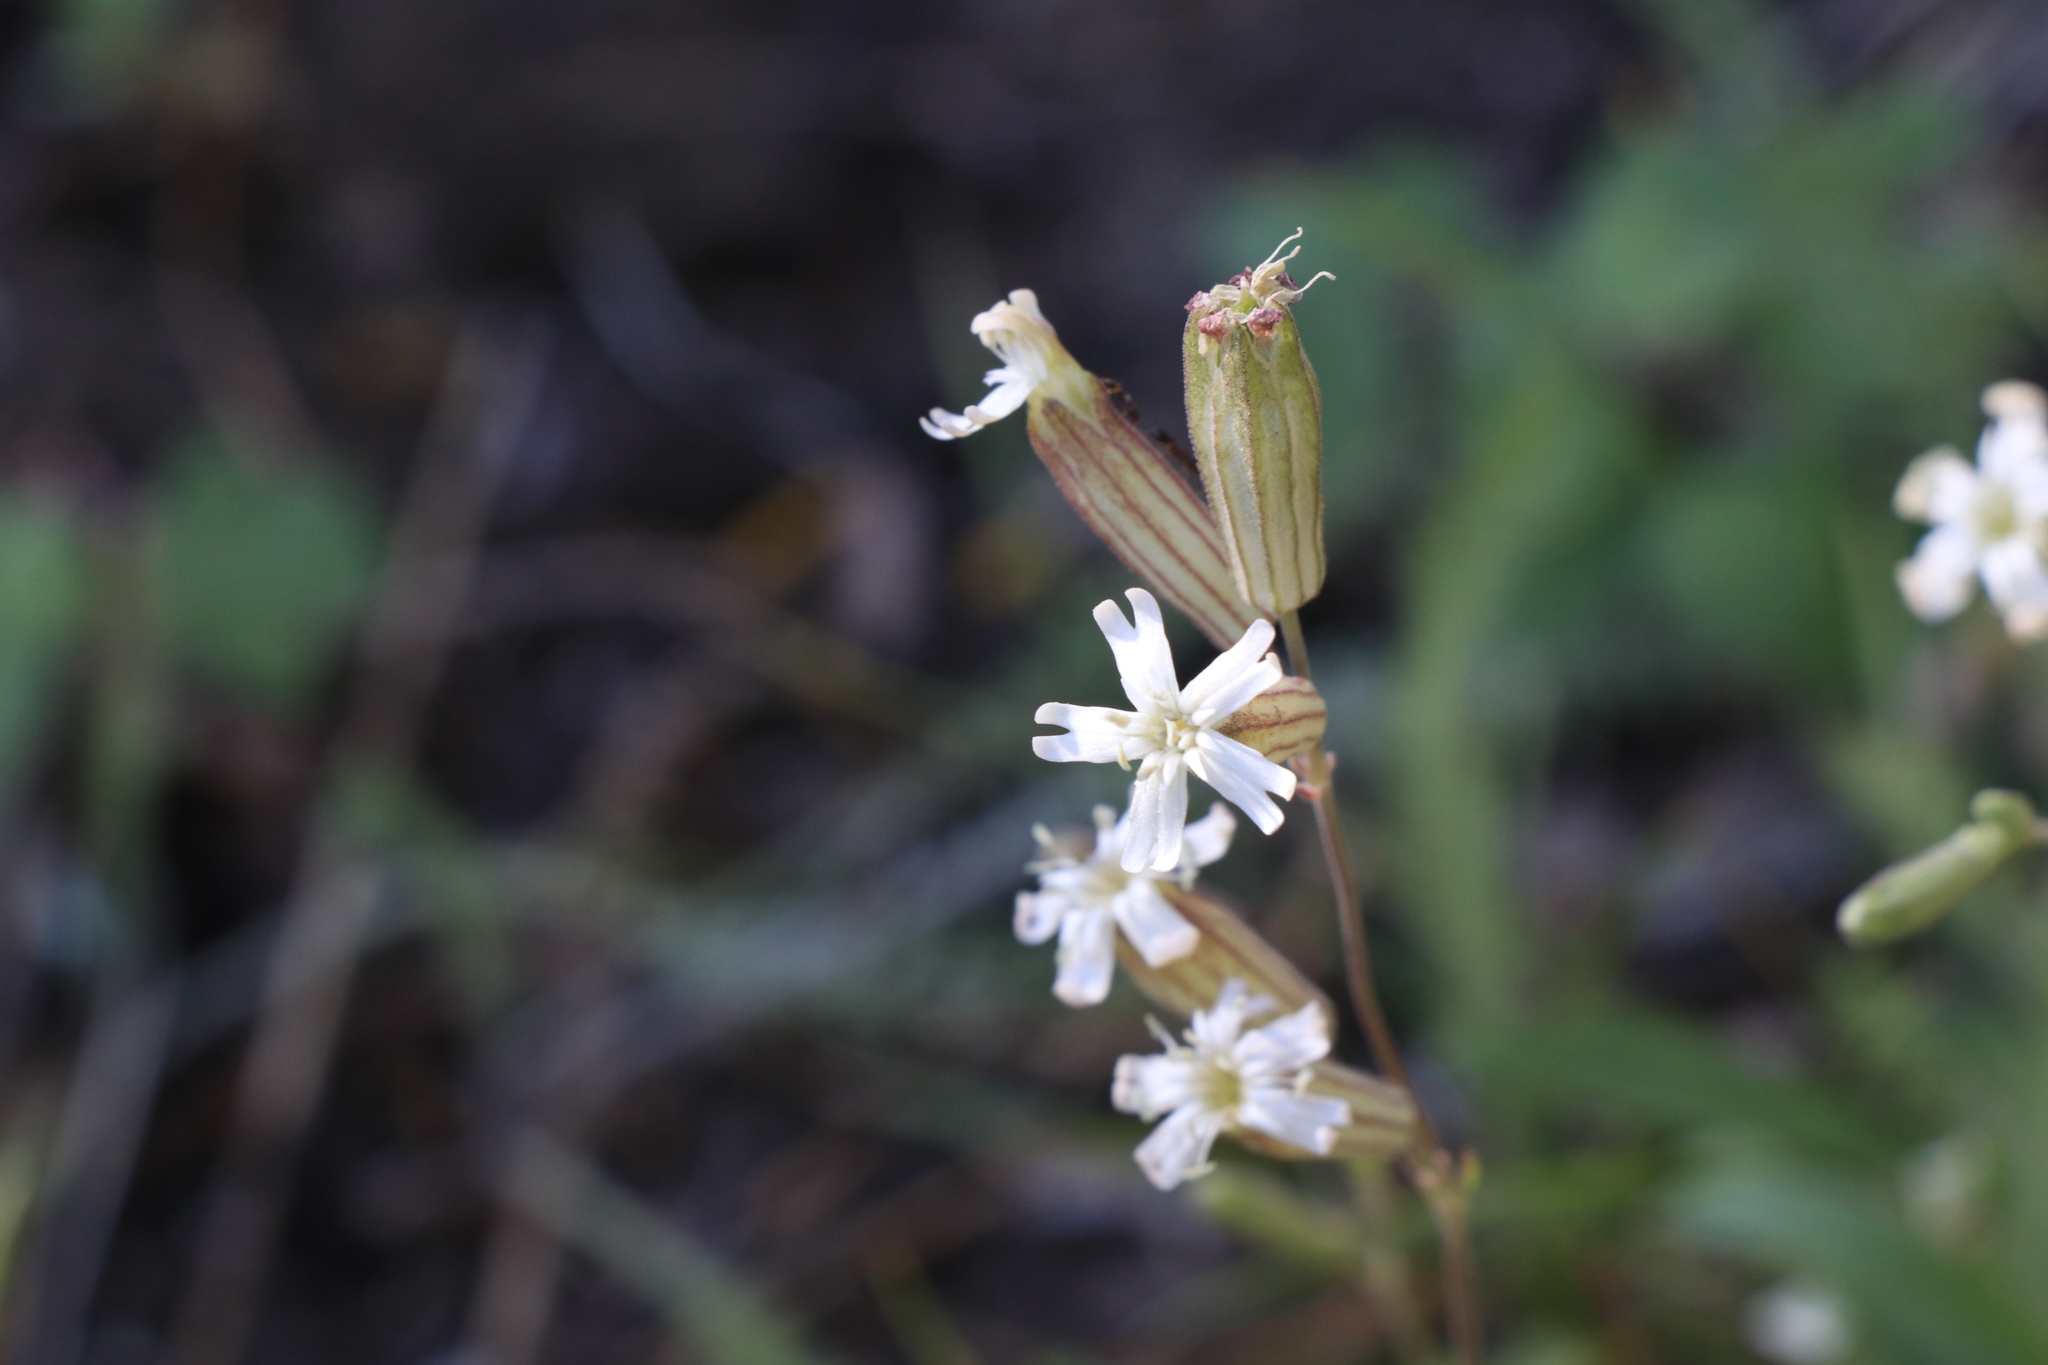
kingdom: Plantae
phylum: Tracheophyta
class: Magnoliopsida
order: Caryophyllales
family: Caryophyllaceae
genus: Silene
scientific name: Silene douglasii
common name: Douglas's catchfly
